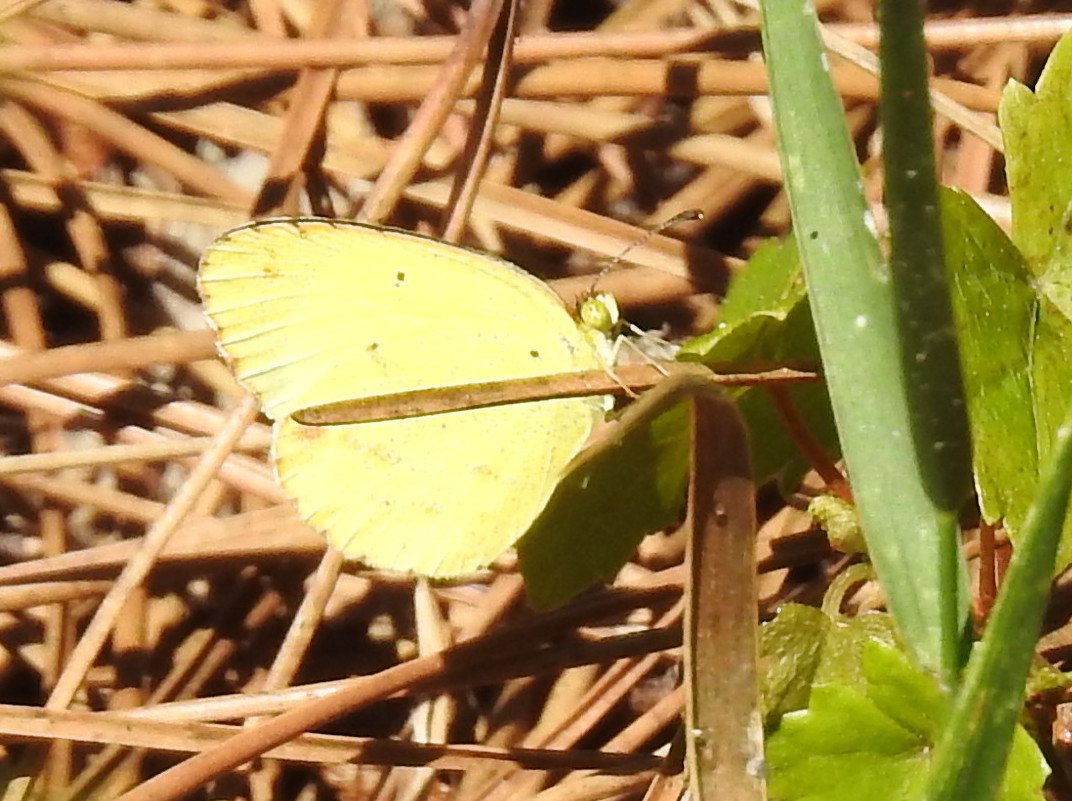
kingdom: Animalia
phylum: Arthropoda
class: Insecta
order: Lepidoptera
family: Pieridae
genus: Pyrisitia
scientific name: Pyrisitia lisa
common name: Little yellow
